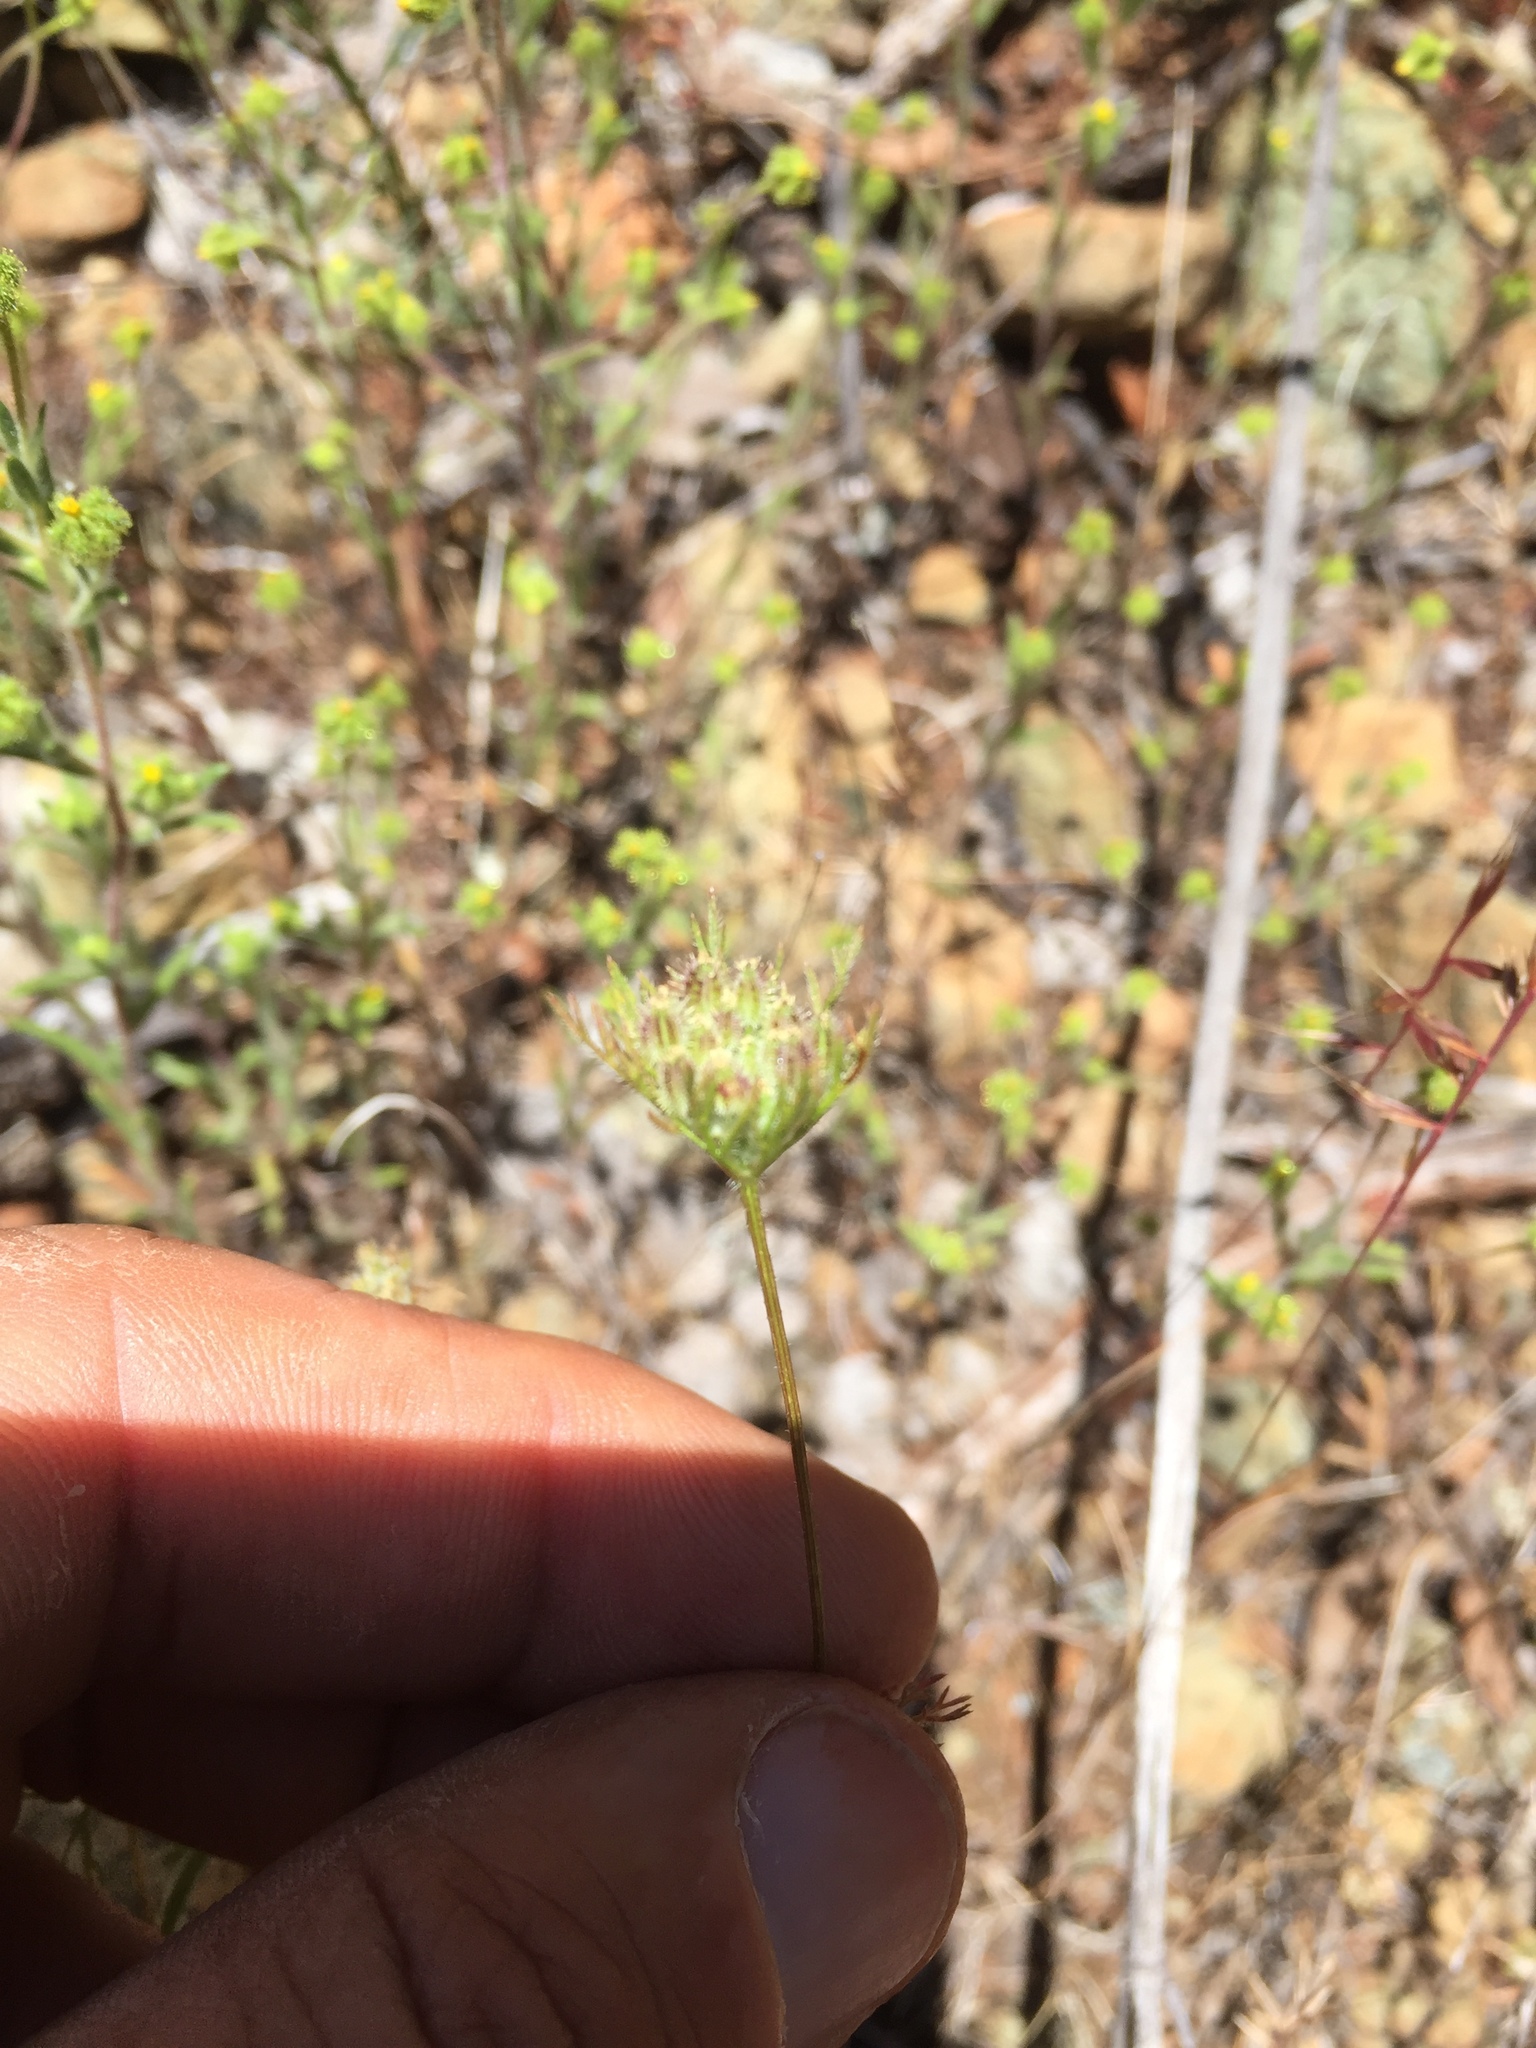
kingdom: Plantae
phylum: Tracheophyta
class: Magnoliopsida
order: Apiales
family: Apiaceae
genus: Daucus
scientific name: Daucus pusillus
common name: Southwest wild carrot
